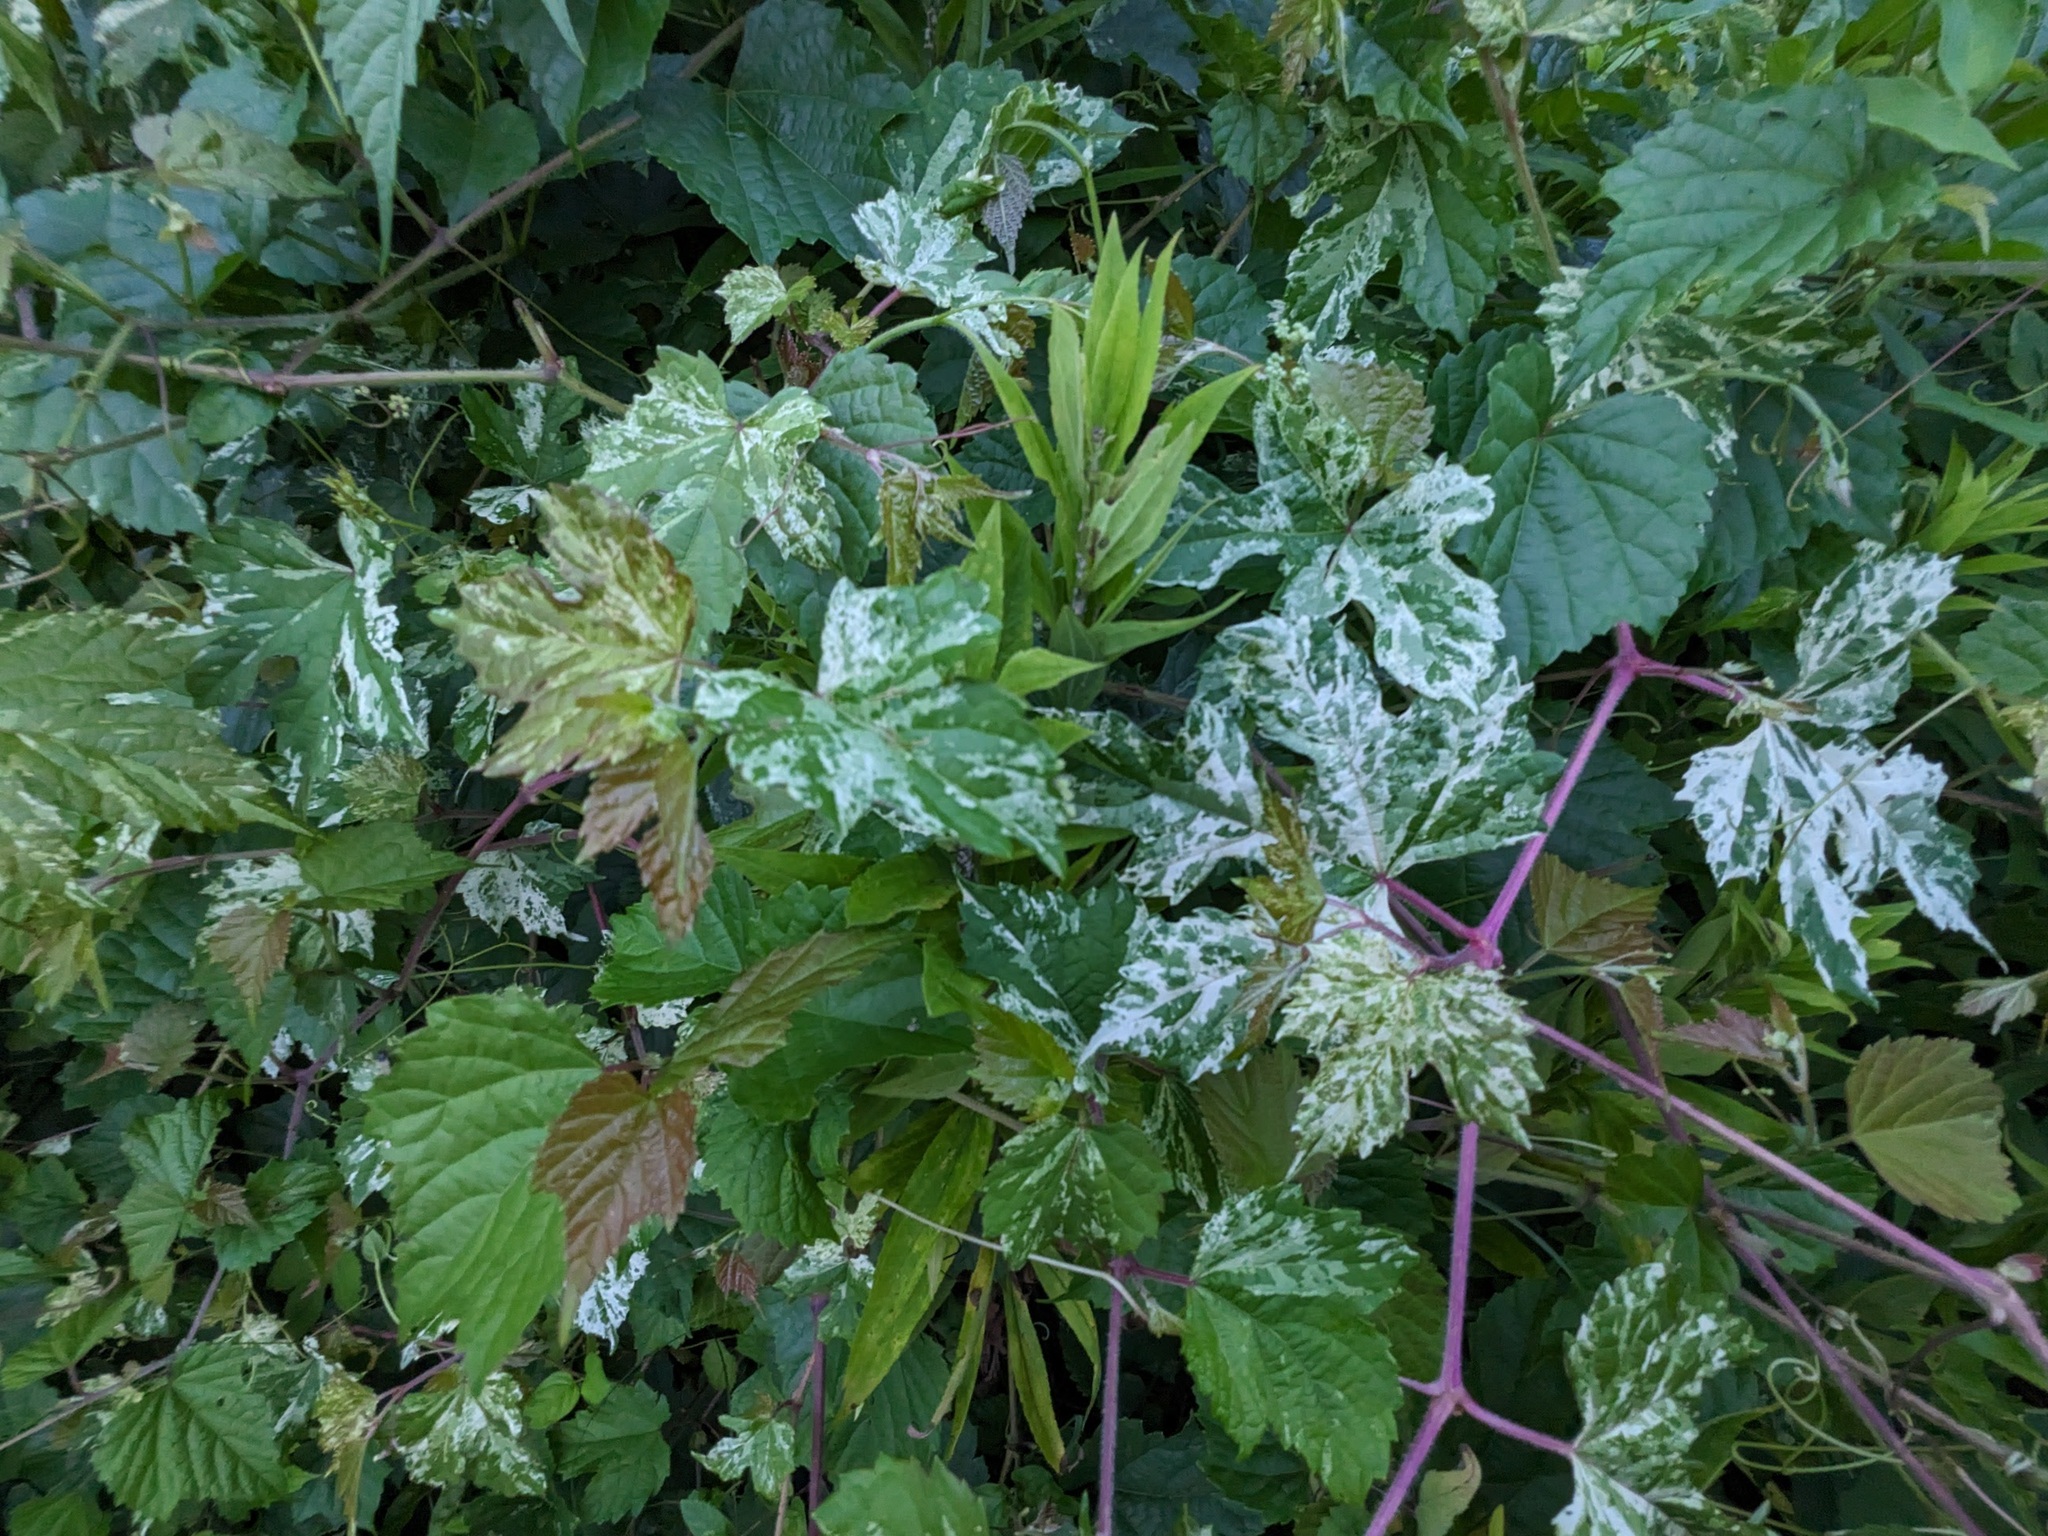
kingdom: Plantae
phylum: Tracheophyta
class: Magnoliopsida
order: Vitales
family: Vitaceae
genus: Ampelopsis
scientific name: Ampelopsis glandulosa
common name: Amur peppervine
